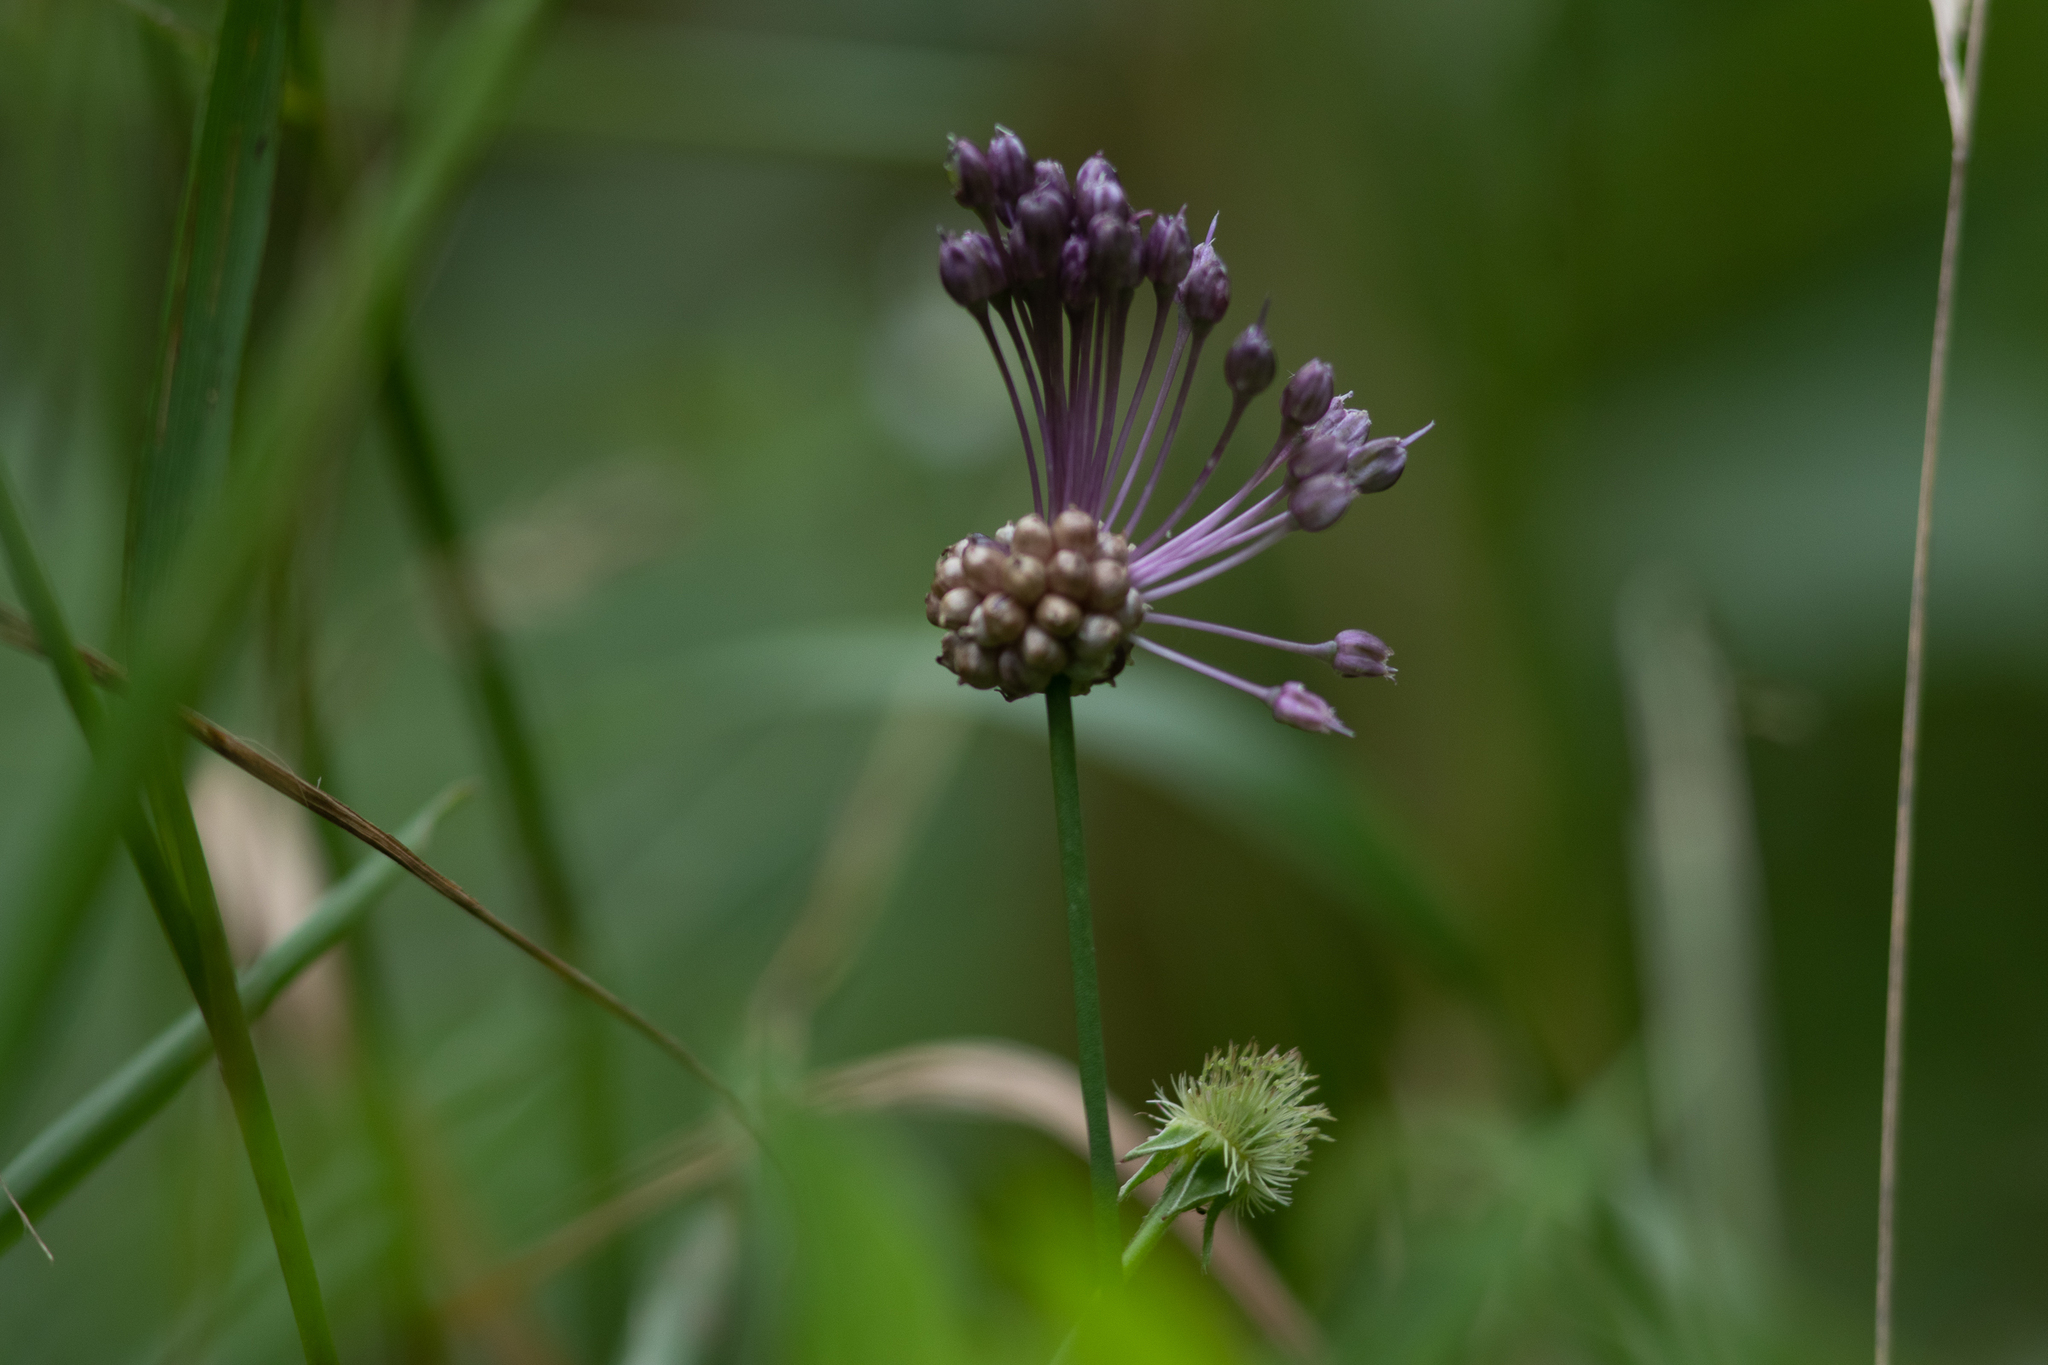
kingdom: Plantae
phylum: Tracheophyta
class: Liliopsida
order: Asparagales
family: Amaryllidaceae
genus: Allium
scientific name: Allium vineale
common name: Crow garlic
